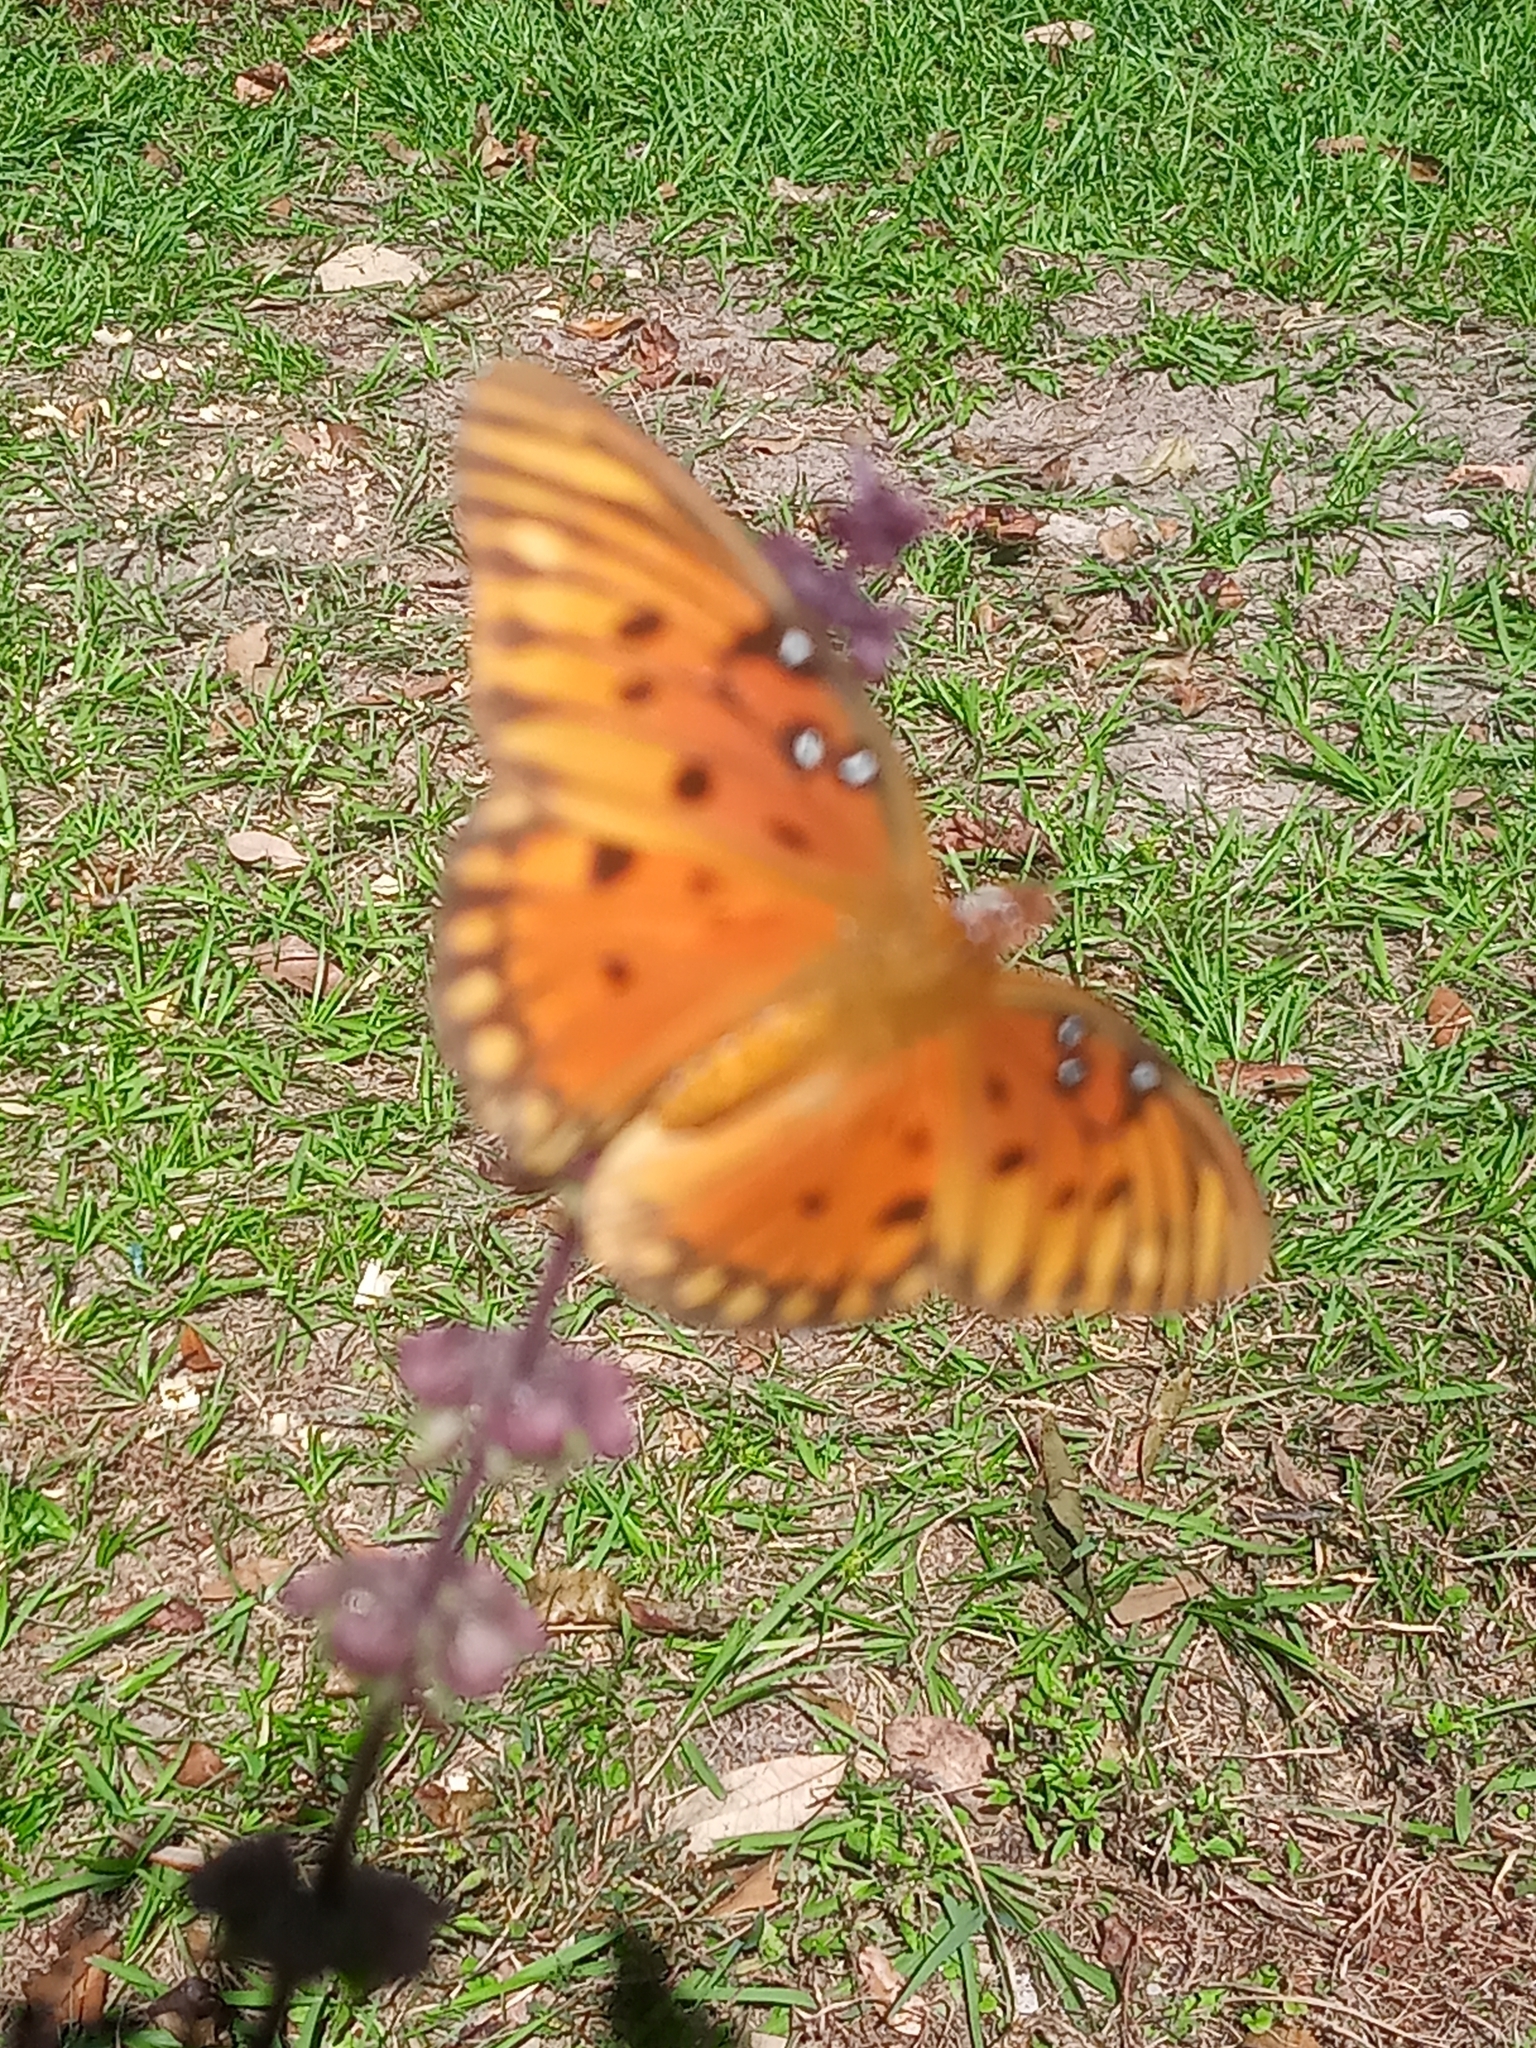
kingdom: Animalia
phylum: Arthropoda
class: Insecta
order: Lepidoptera
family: Nymphalidae
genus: Dione
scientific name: Dione vanillae
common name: Gulf fritillary
